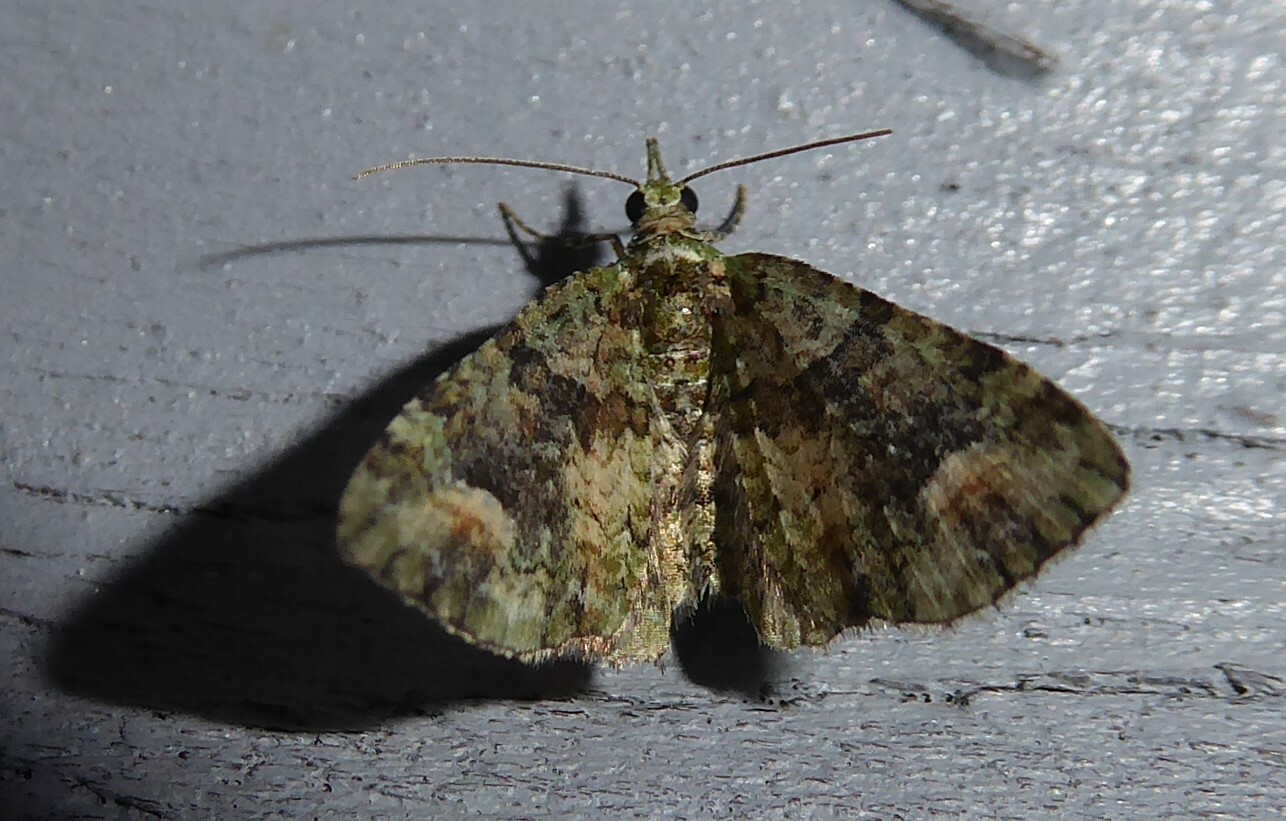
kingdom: Animalia
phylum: Arthropoda
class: Insecta
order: Lepidoptera
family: Geometridae
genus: Idaea
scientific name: Idaea mutanda
